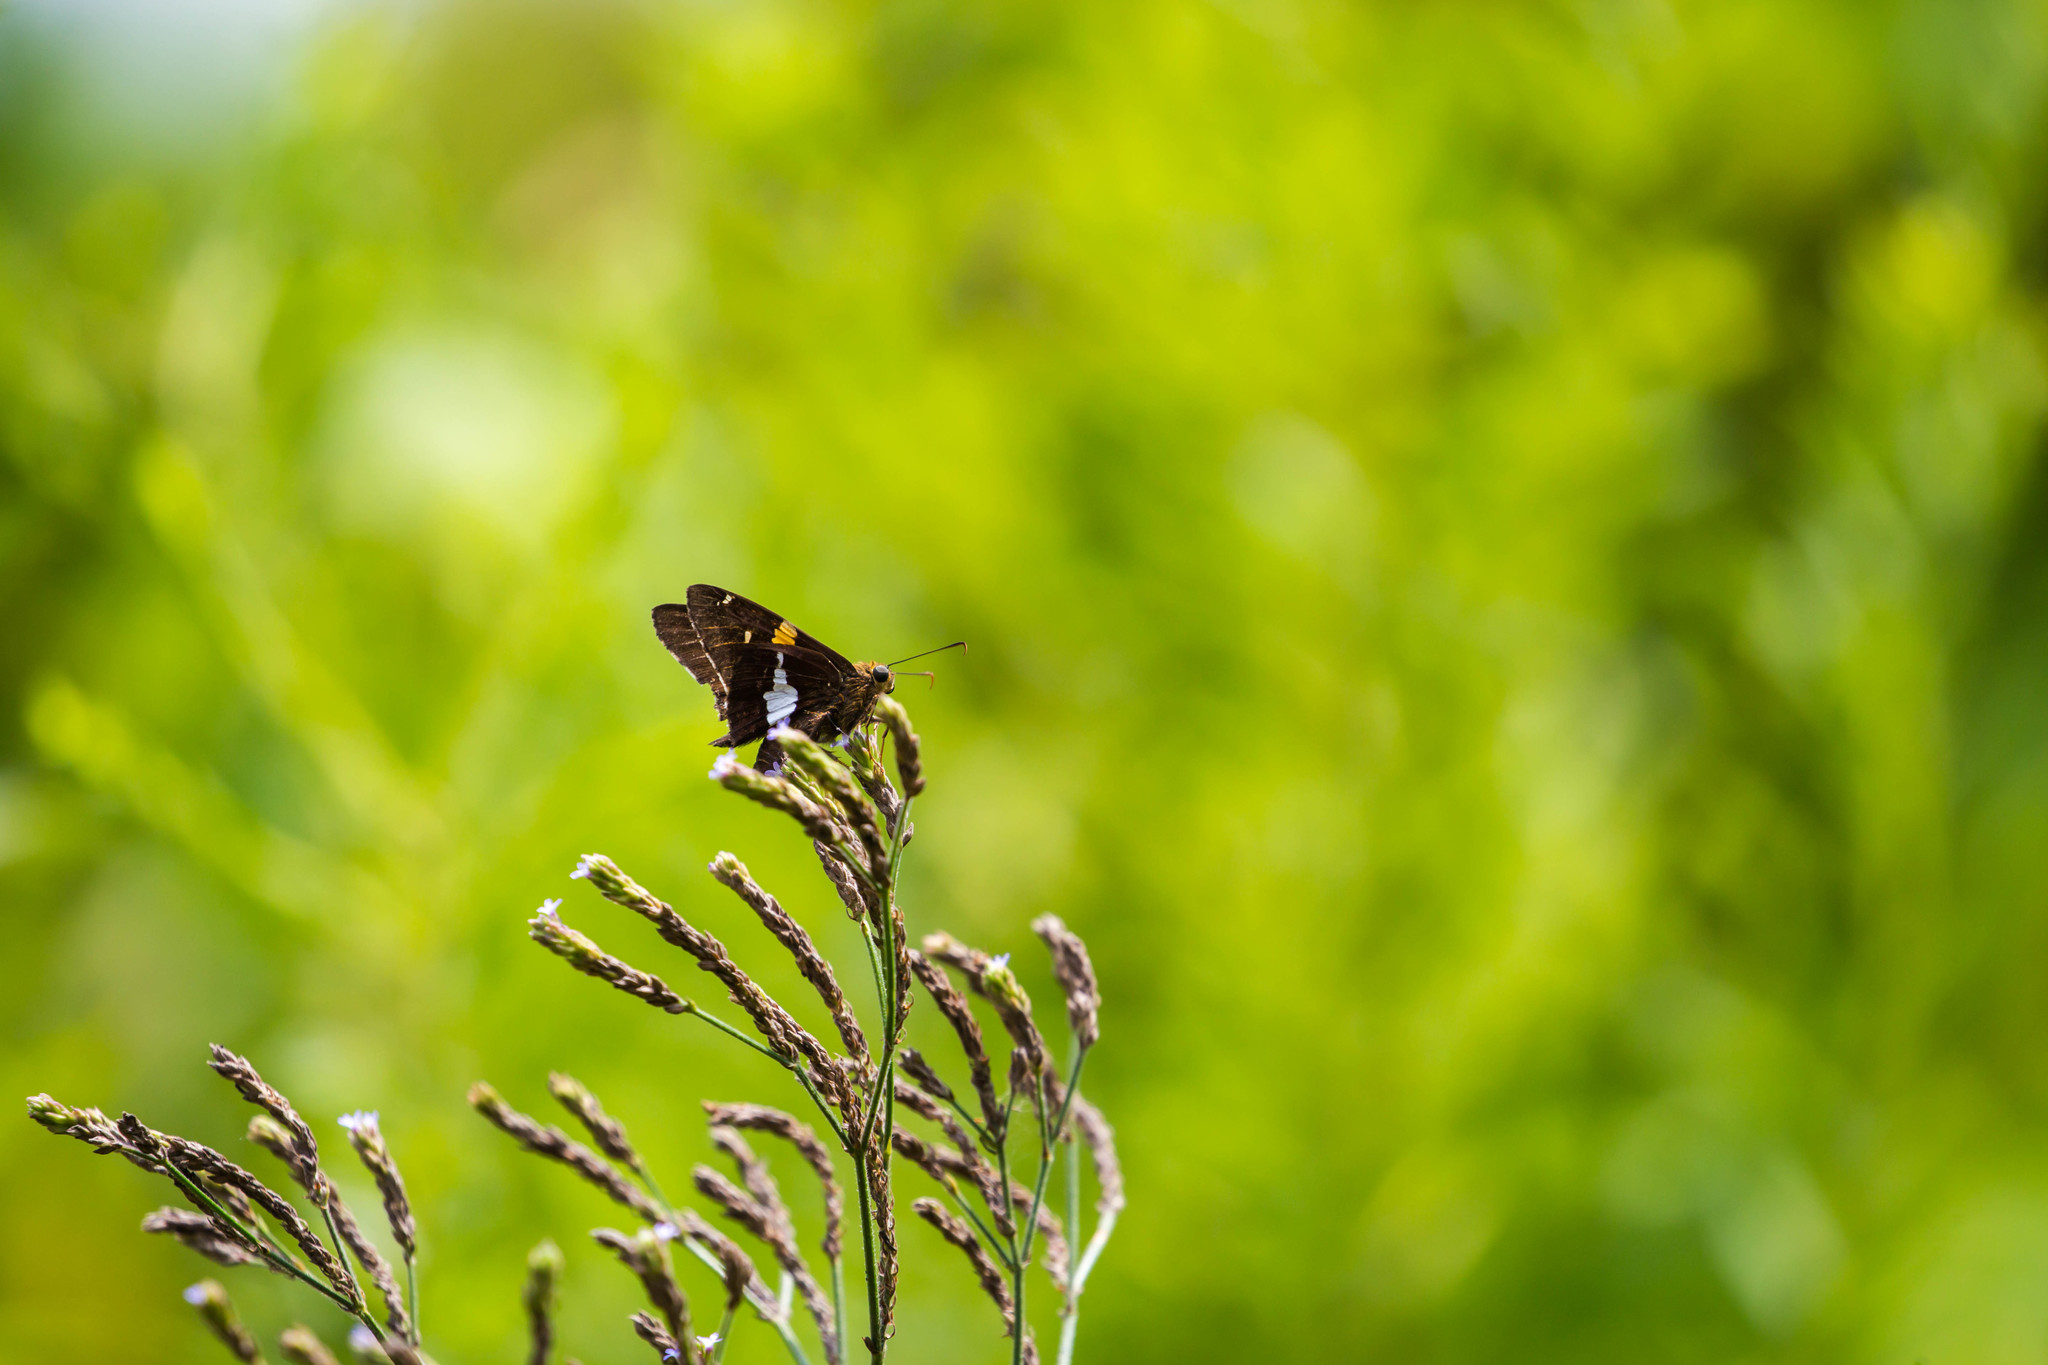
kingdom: Animalia
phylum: Arthropoda
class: Insecta
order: Lepidoptera
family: Hesperiidae
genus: Epargyreus
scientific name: Epargyreus clarus
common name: Silver-spotted skipper
